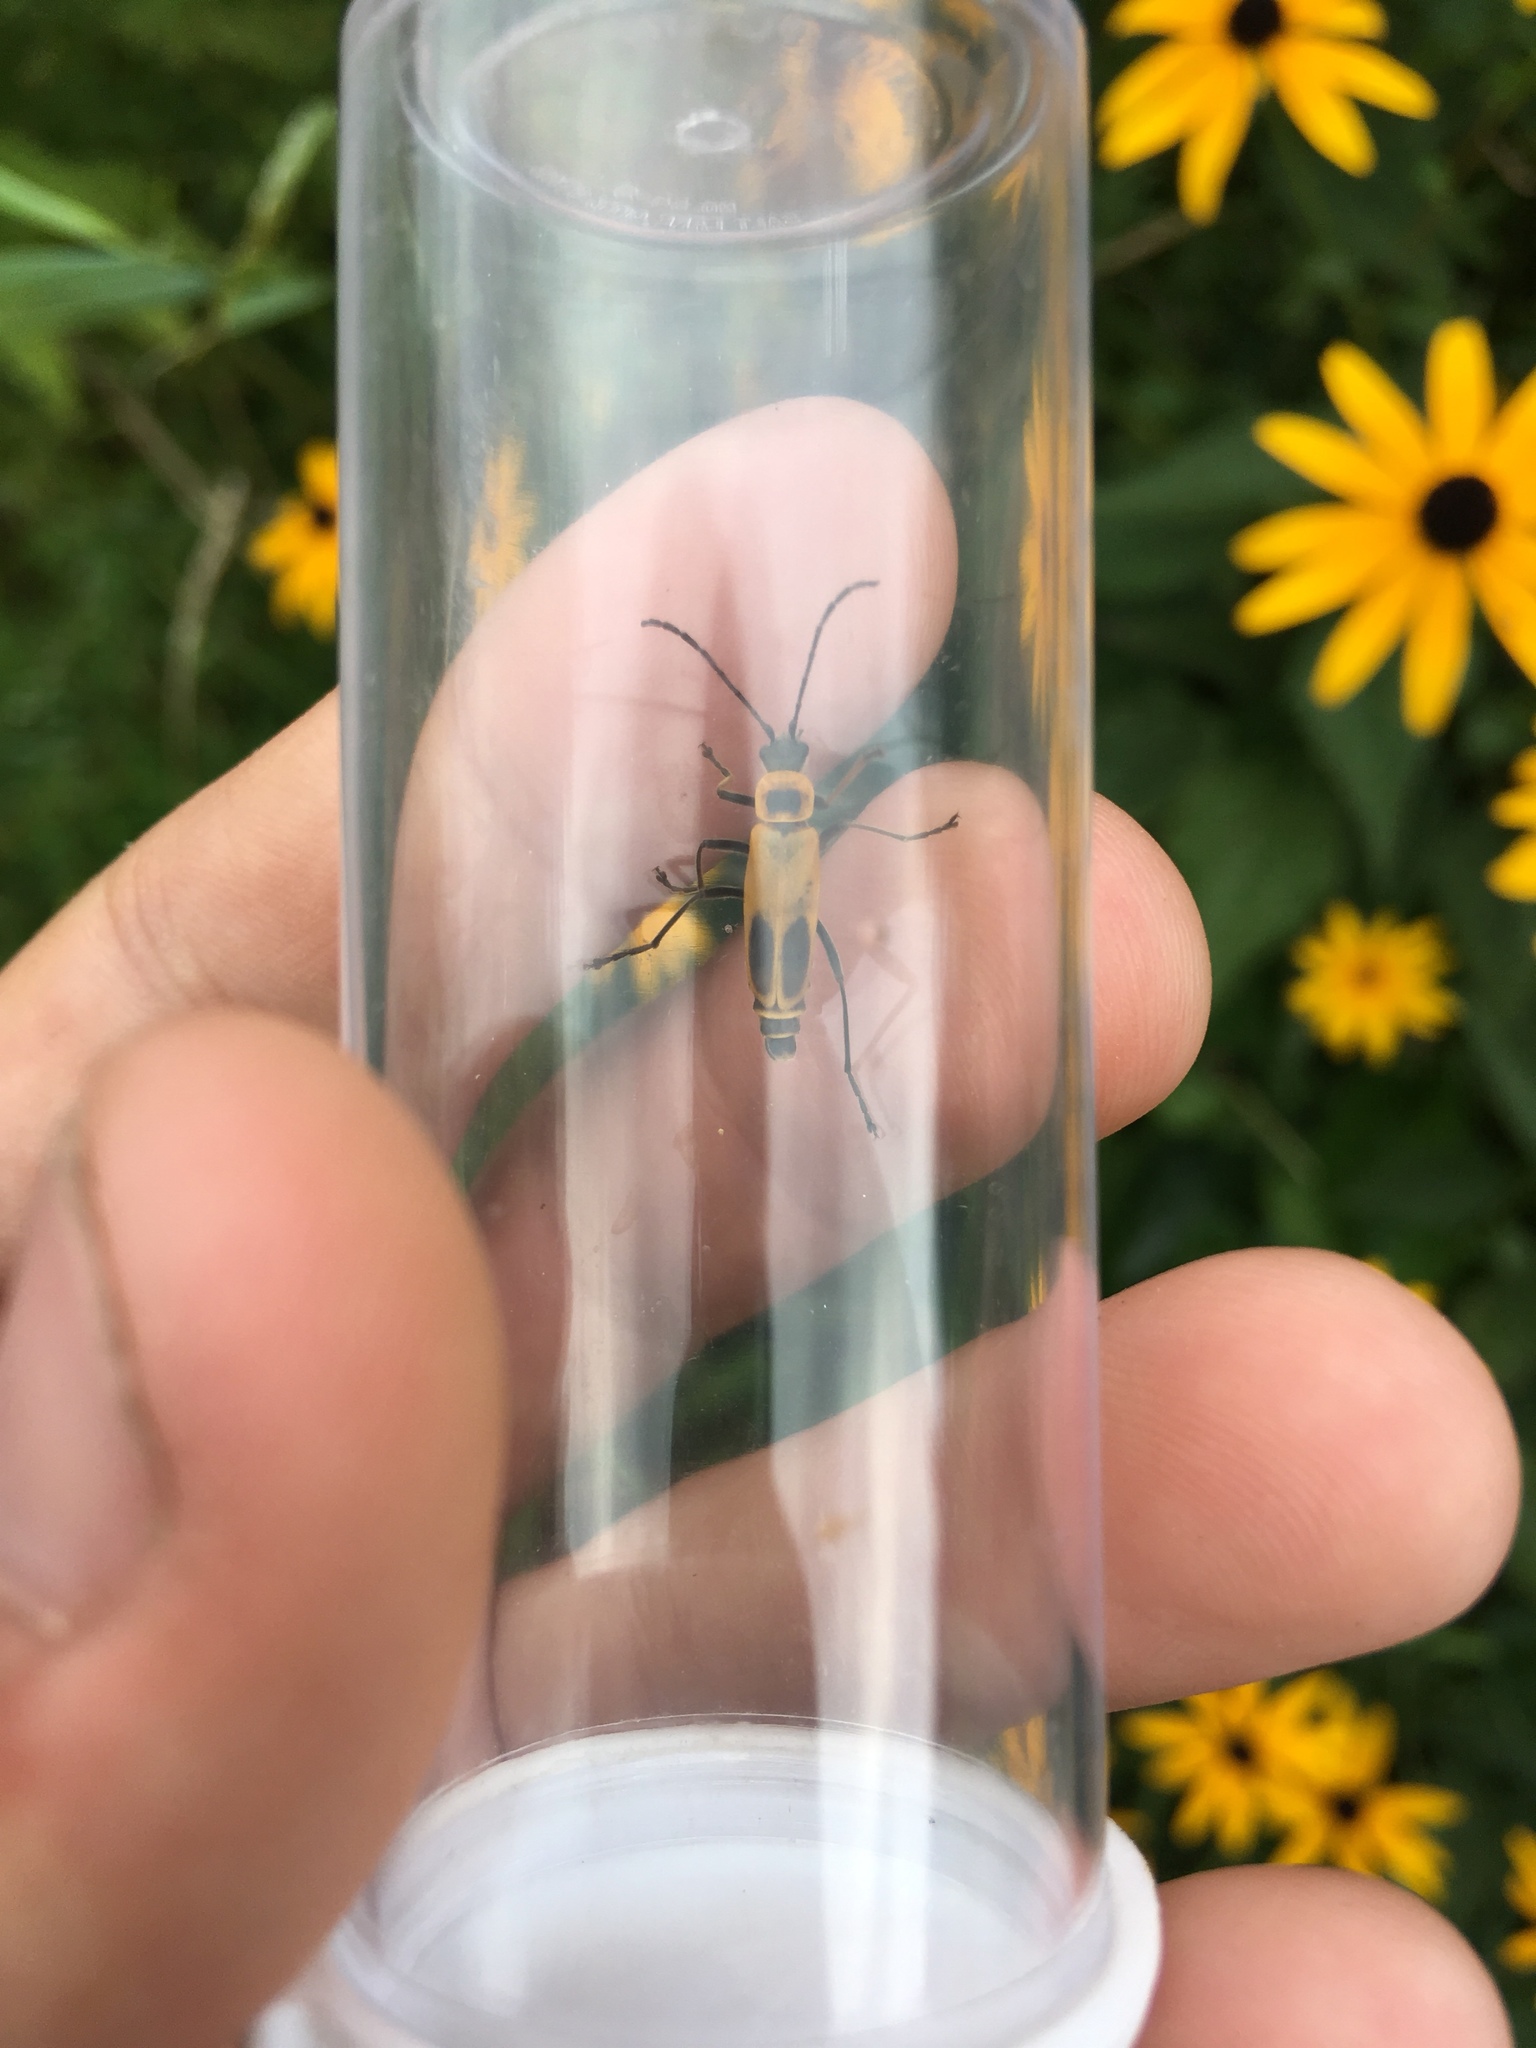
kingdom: Animalia
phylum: Arthropoda
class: Insecta
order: Coleoptera
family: Cantharidae
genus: Chauliognathus
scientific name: Chauliognathus pensylvanicus
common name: Goldenrod soldier beetle
